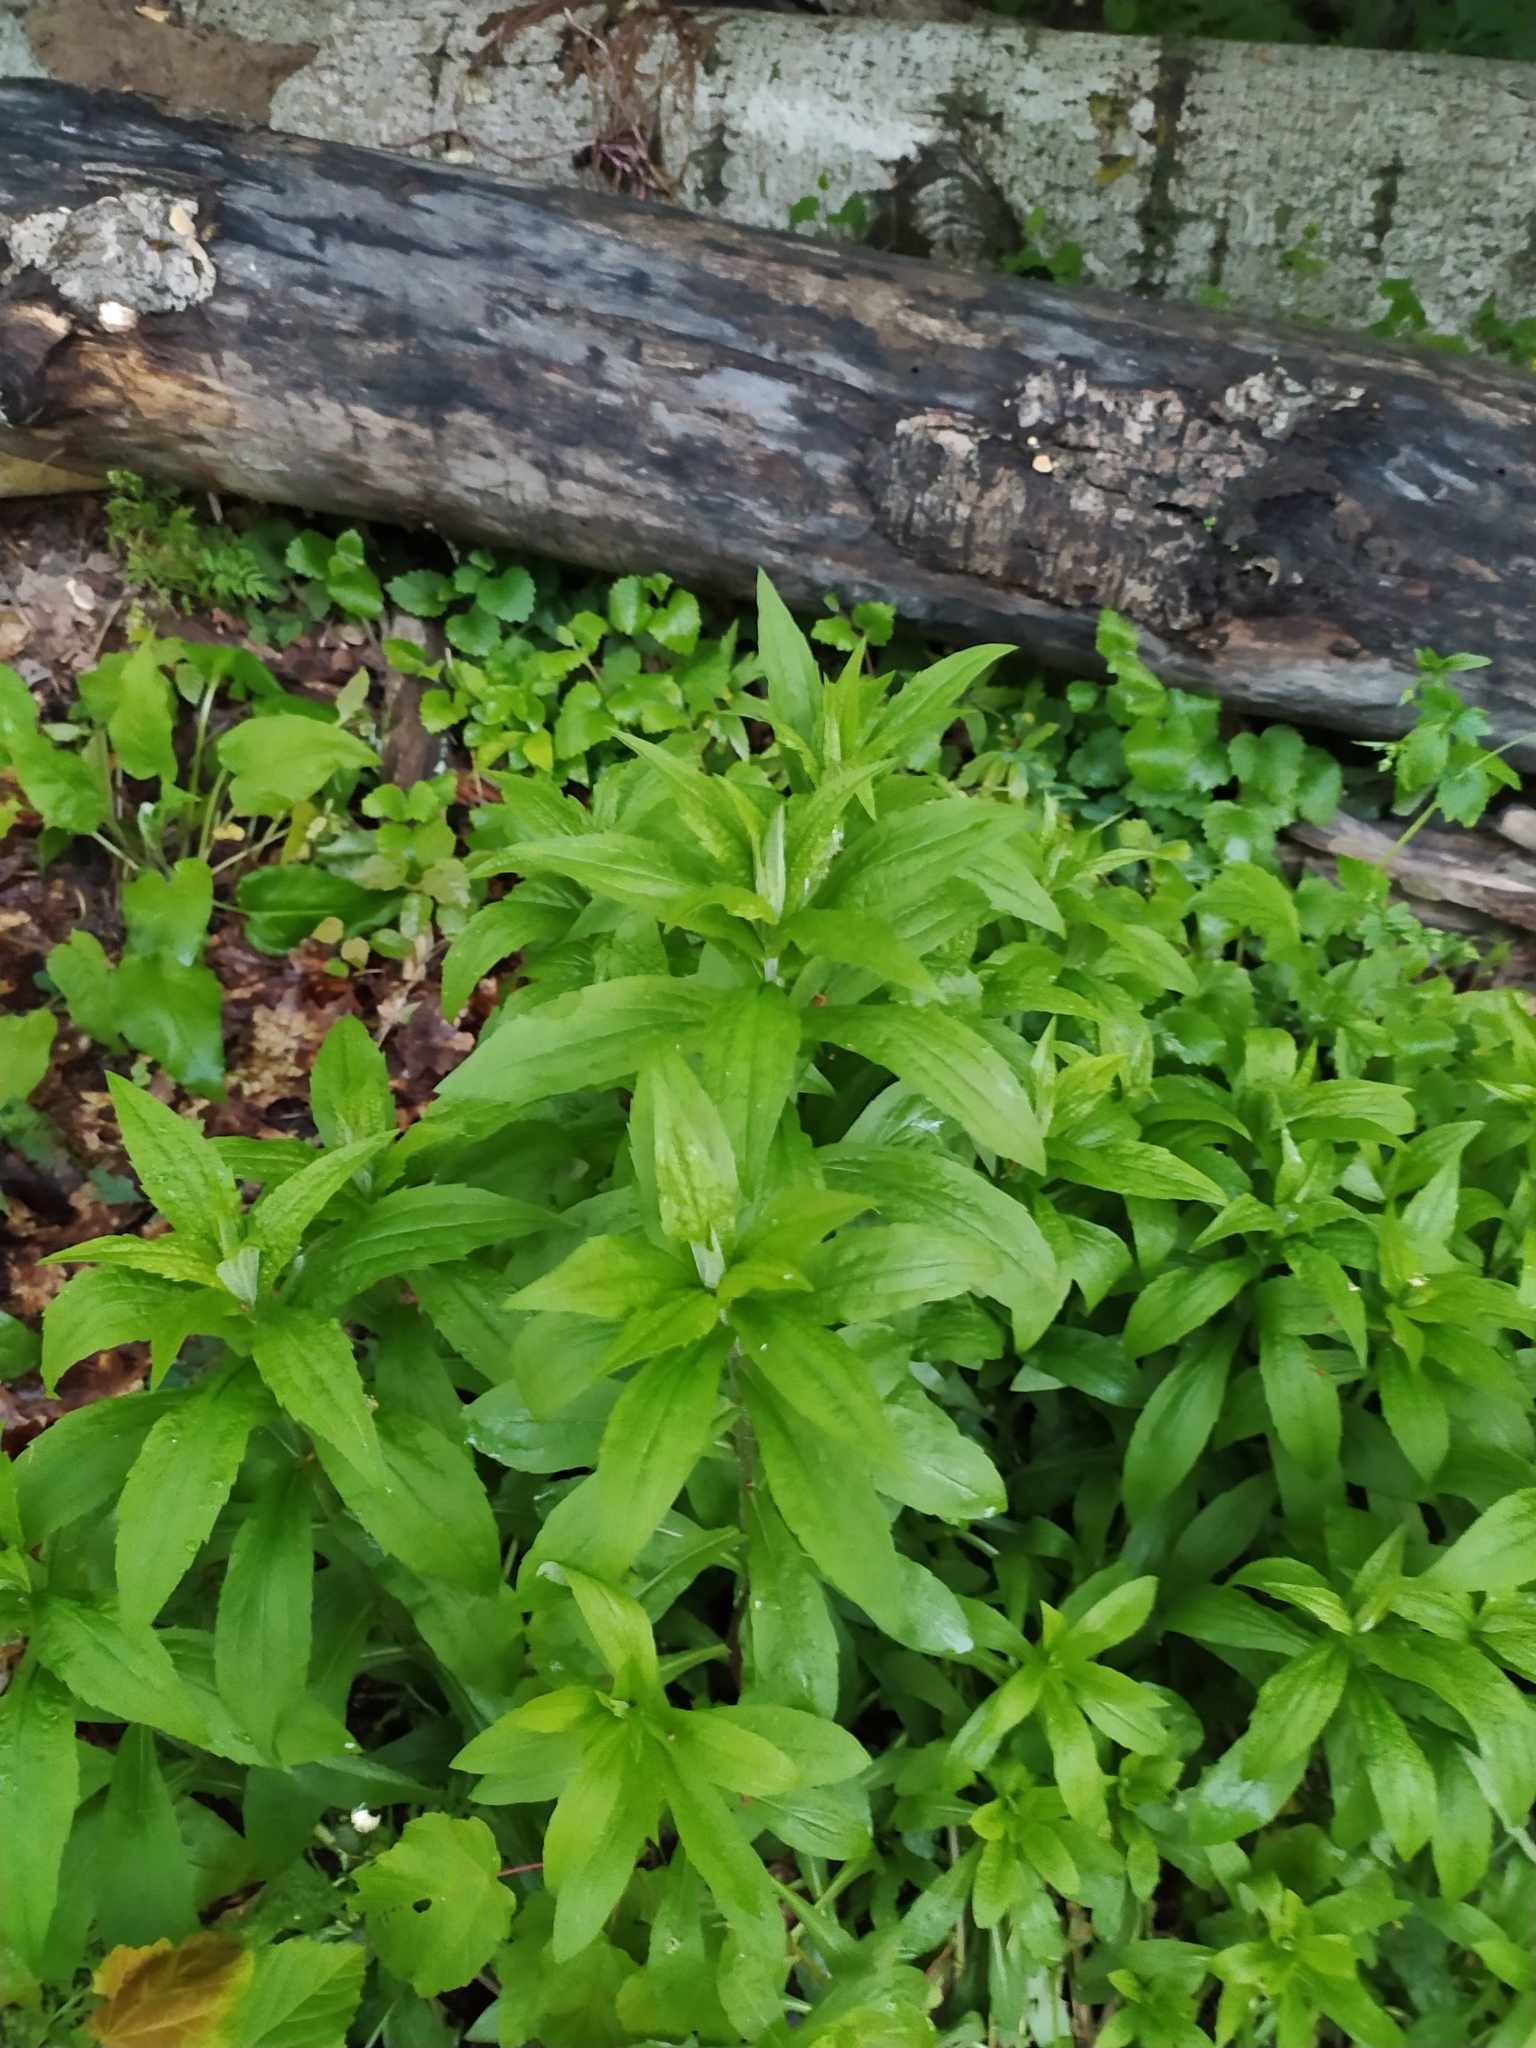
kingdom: Plantae
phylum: Tracheophyta
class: Magnoliopsida
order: Asterales
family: Asteraceae
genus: Solidago
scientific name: Solidago canadensis
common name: Canada goldenrod
